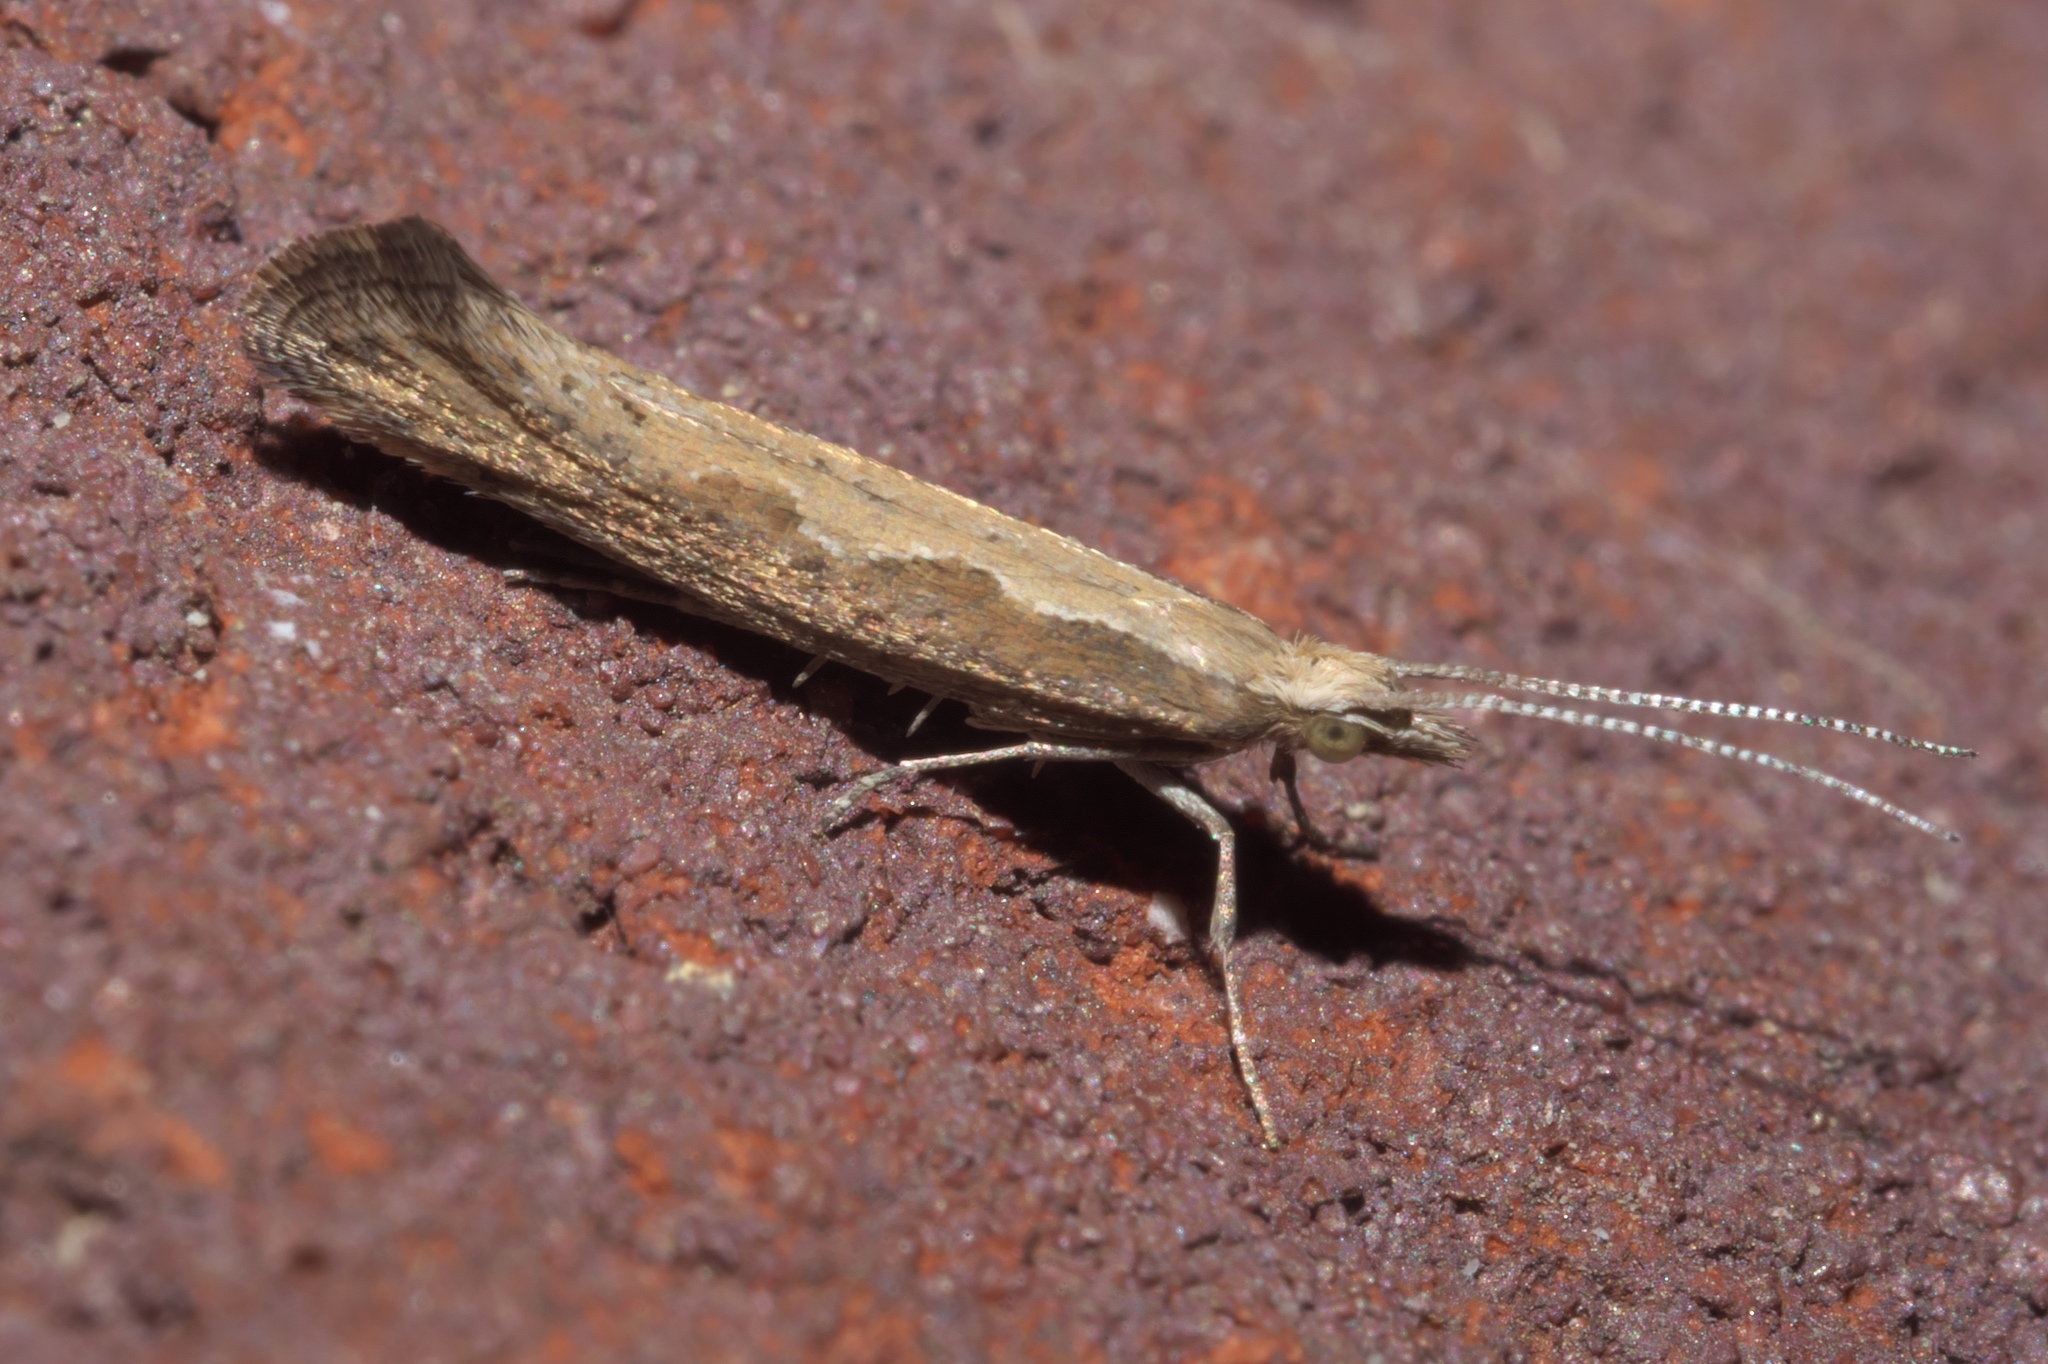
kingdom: Animalia
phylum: Arthropoda
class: Insecta
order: Lepidoptera
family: Plutellidae
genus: Plutella
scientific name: Plutella xylostella
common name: Diamond-back moth
